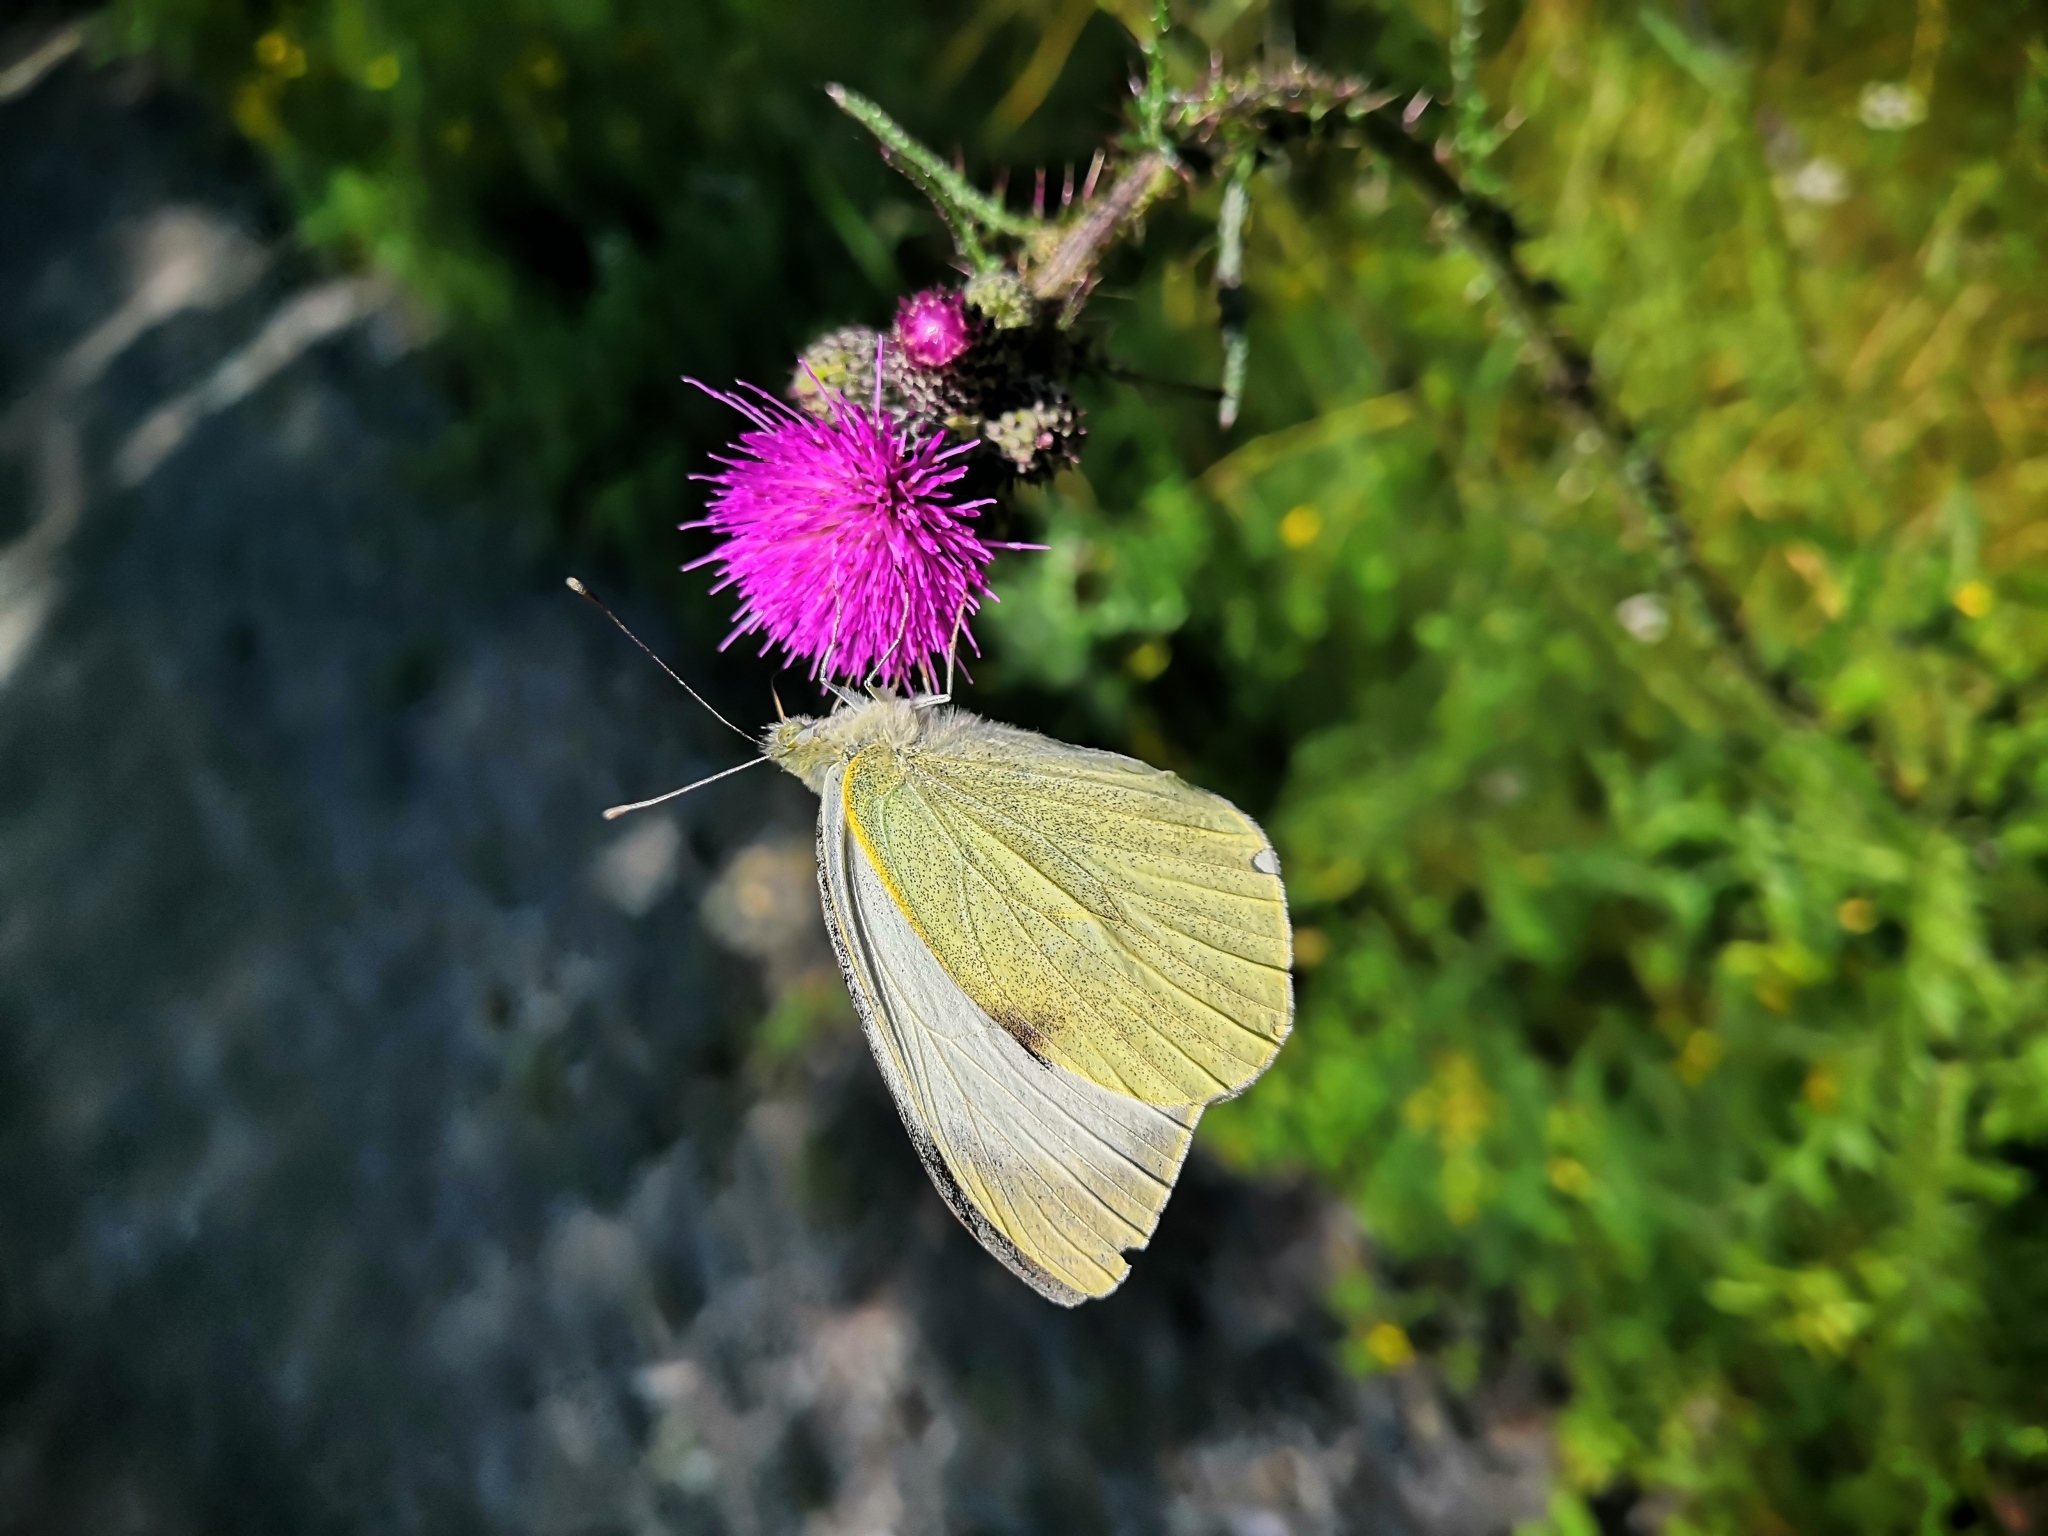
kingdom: Animalia
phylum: Arthropoda
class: Insecta
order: Lepidoptera
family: Pieridae
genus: Pieris
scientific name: Pieris brassicae
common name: Large white
